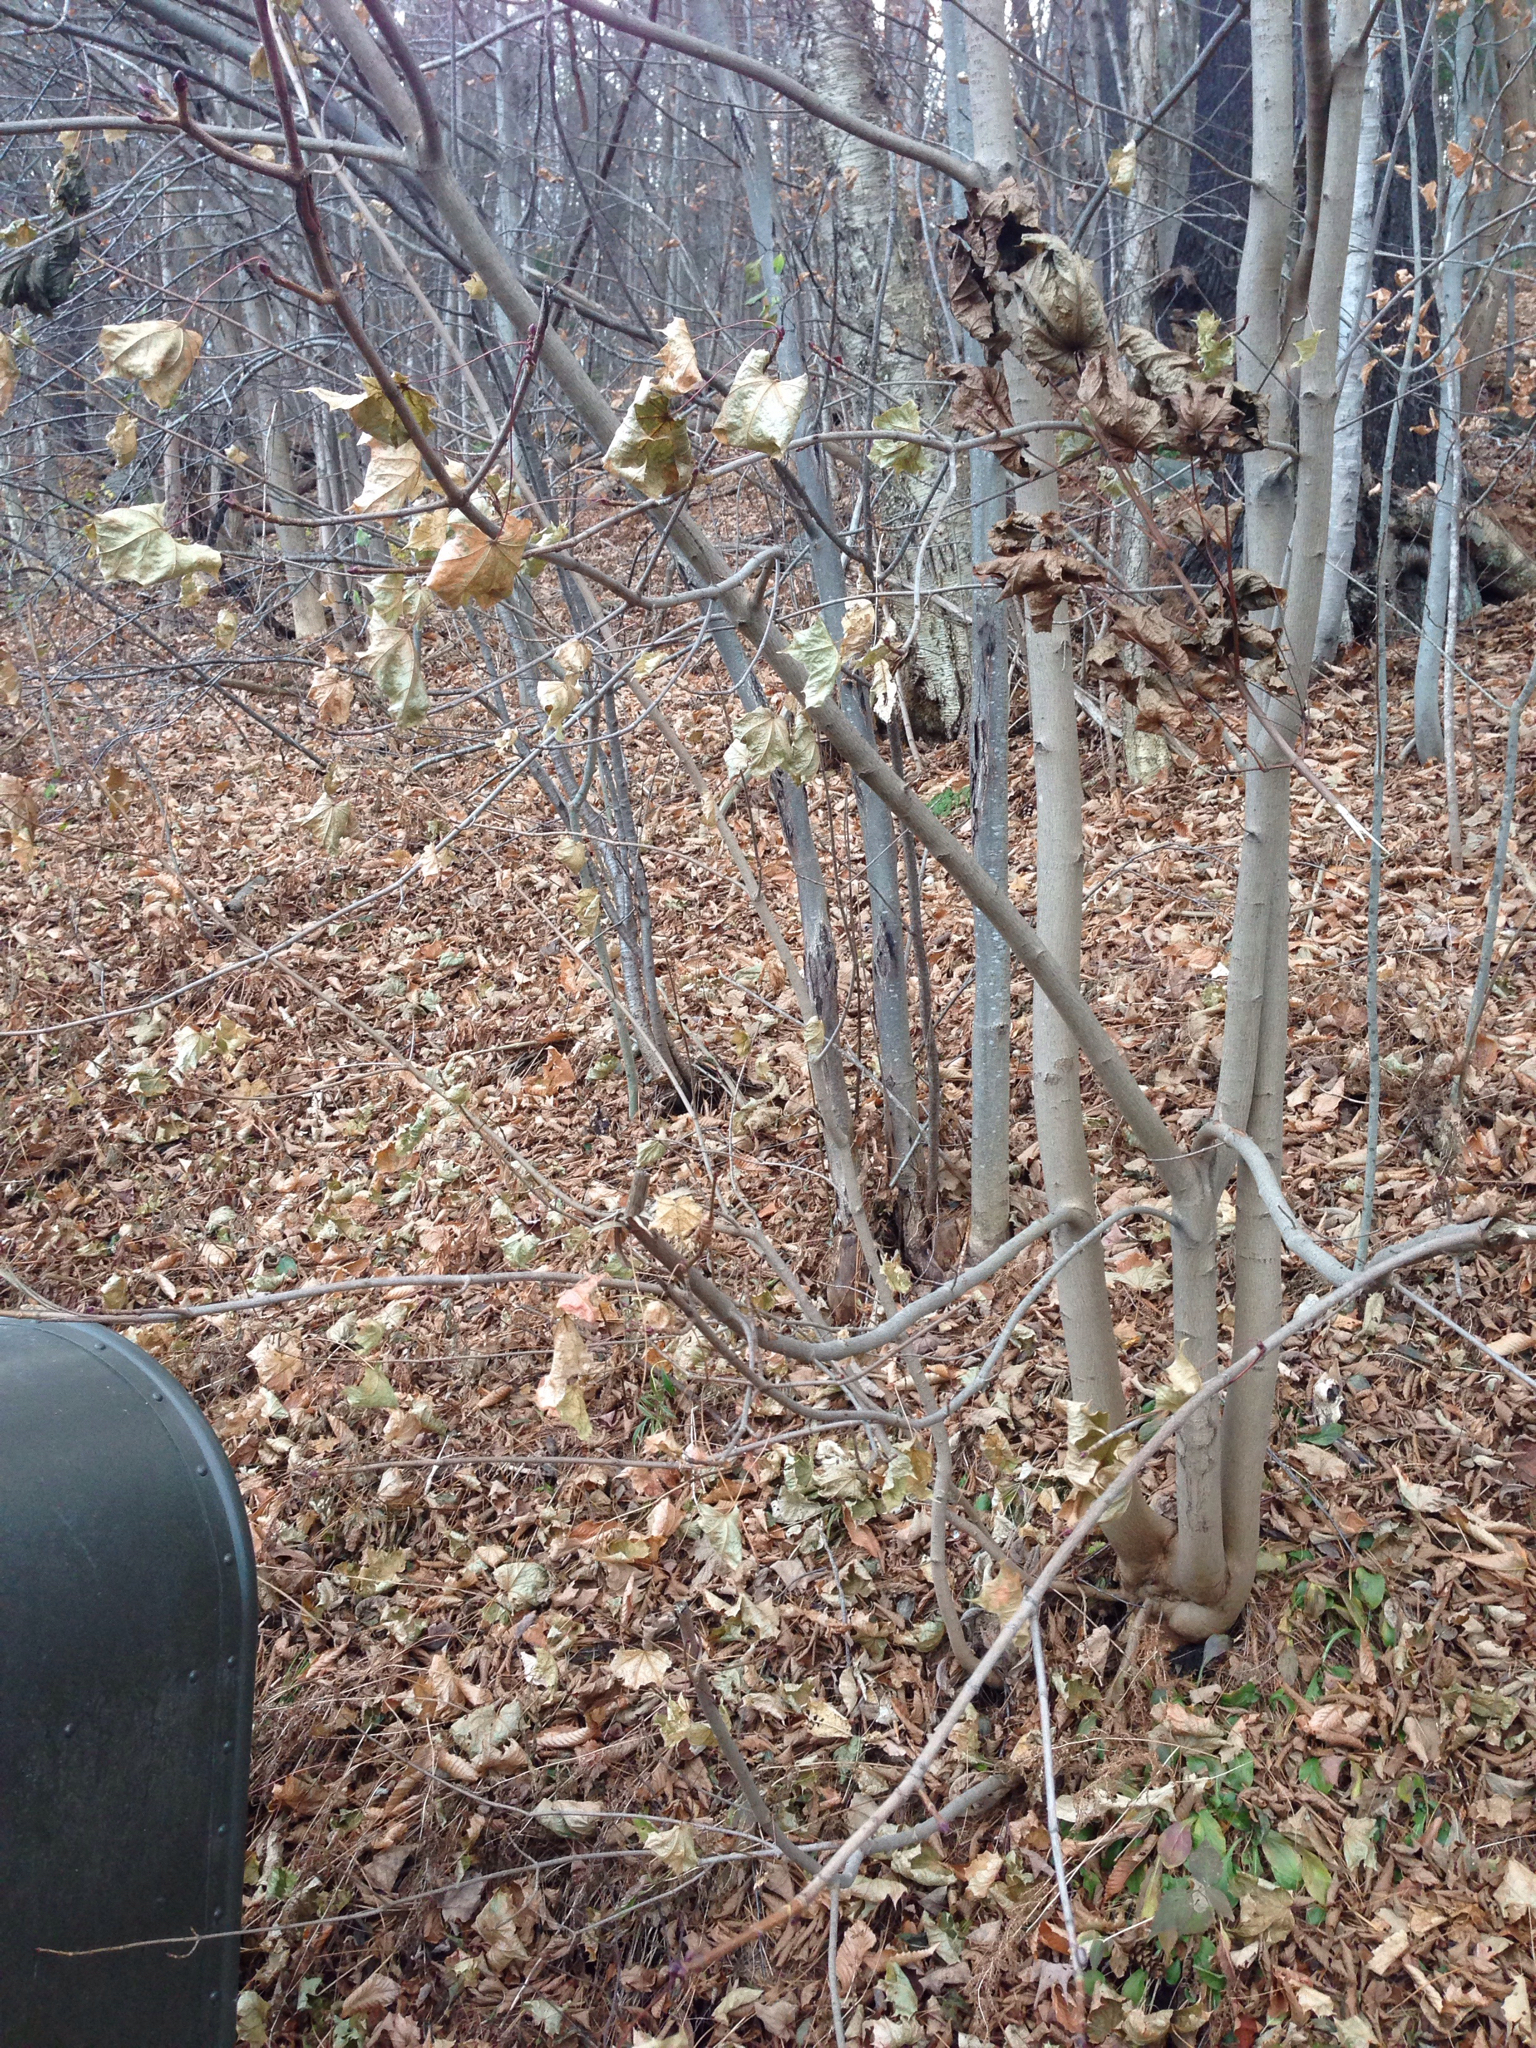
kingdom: Plantae
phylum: Tracheophyta
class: Magnoliopsida
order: Sapindales
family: Sapindaceae
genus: Acer
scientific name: Acer platanoides
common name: Norway maple
